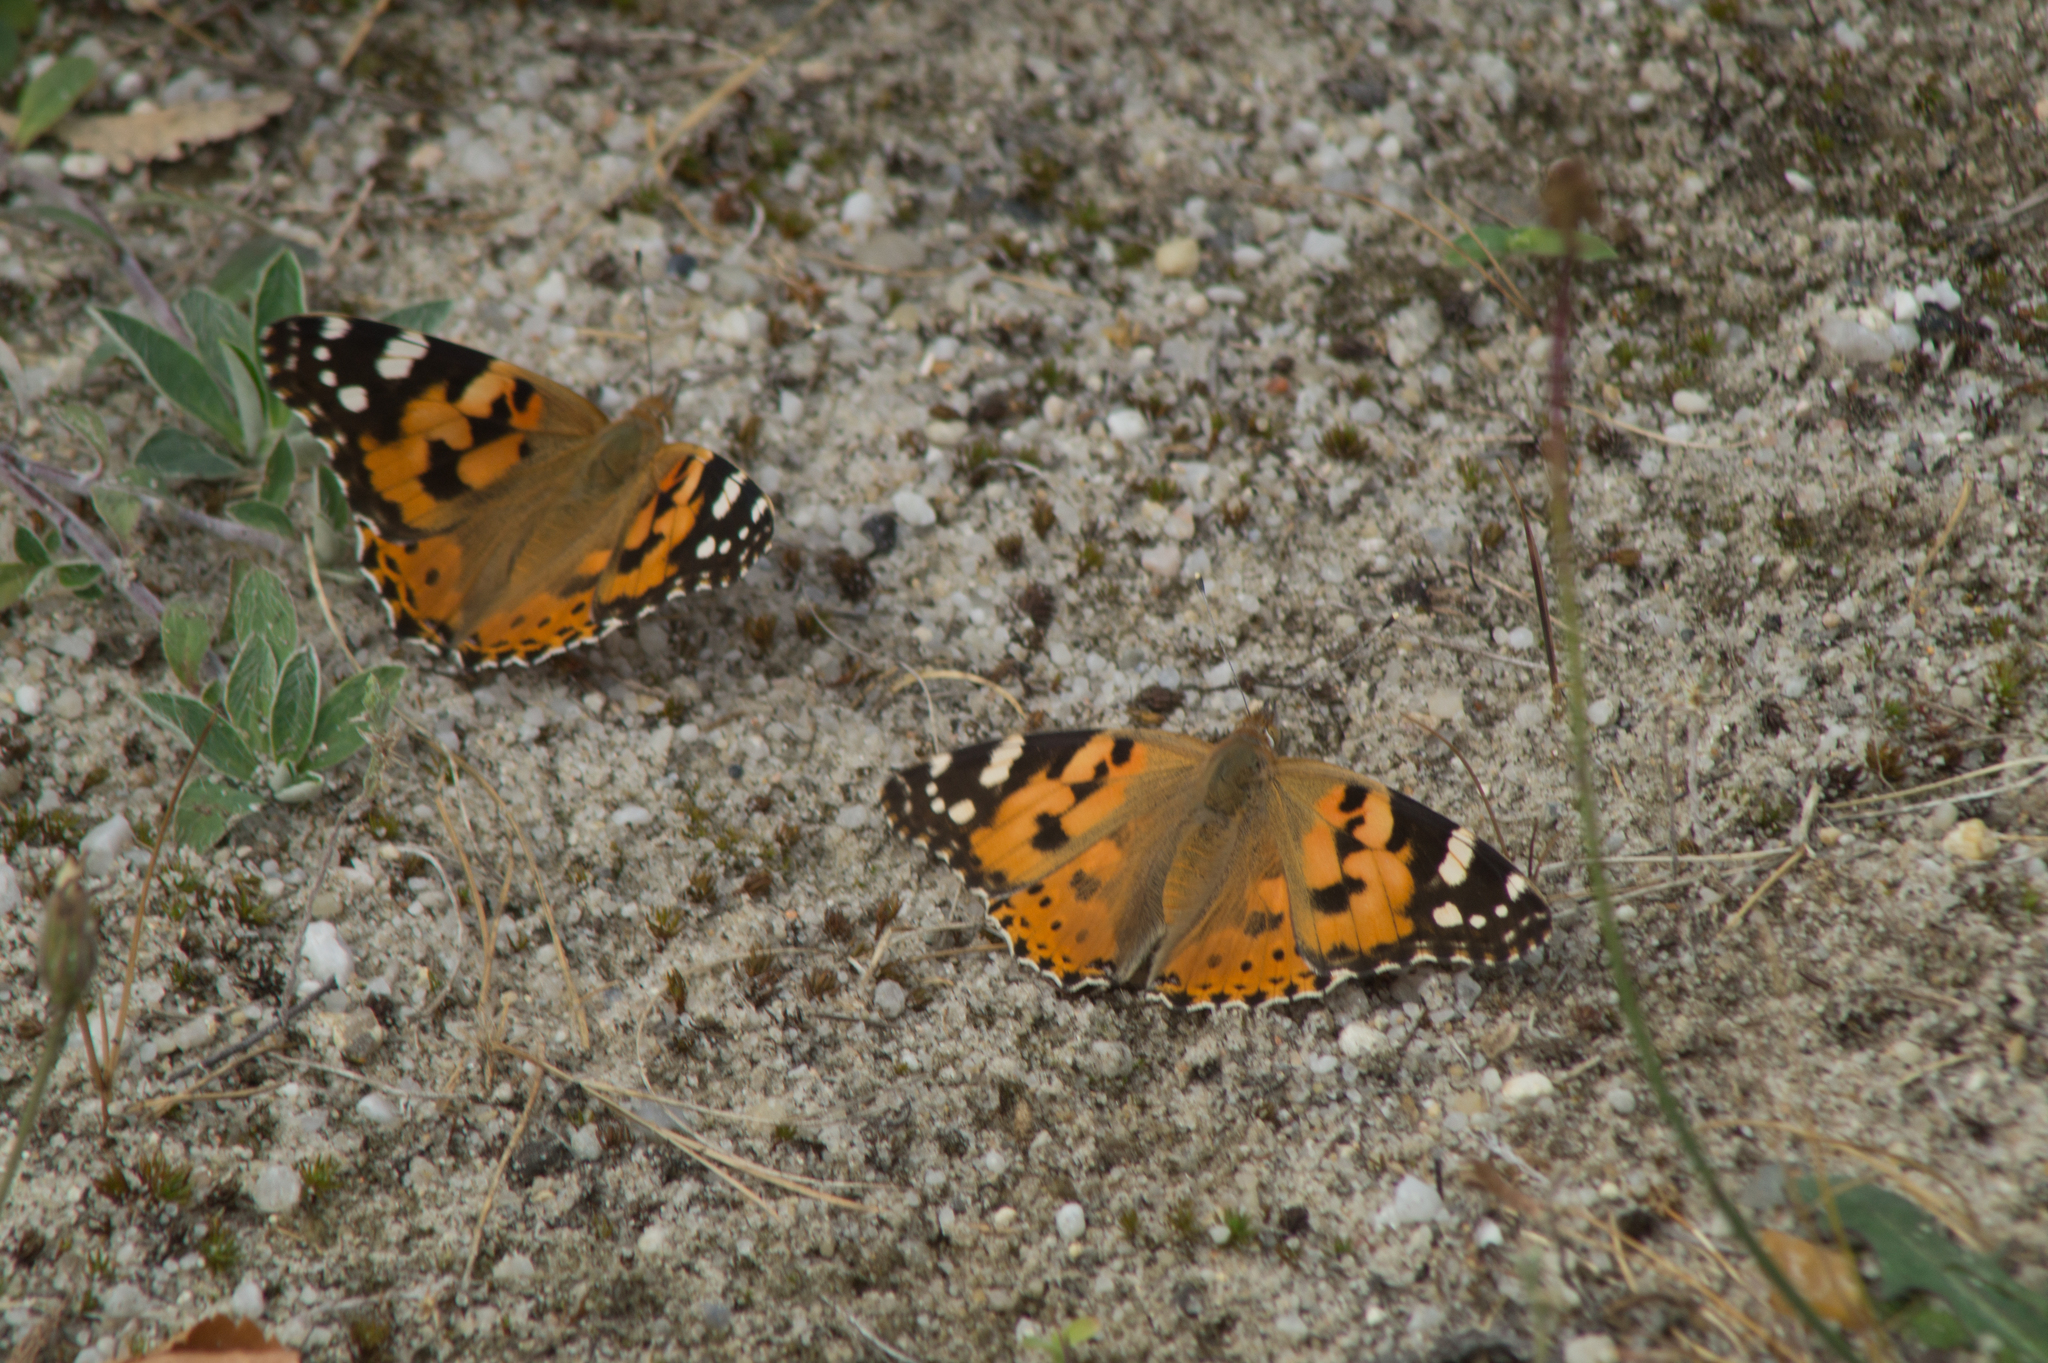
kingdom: Animalia
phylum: Arthropoda
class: Insecta
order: Lepidoptera
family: Nymphalidae
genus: Vanessa
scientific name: Vanessa cardui
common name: Painted lady
